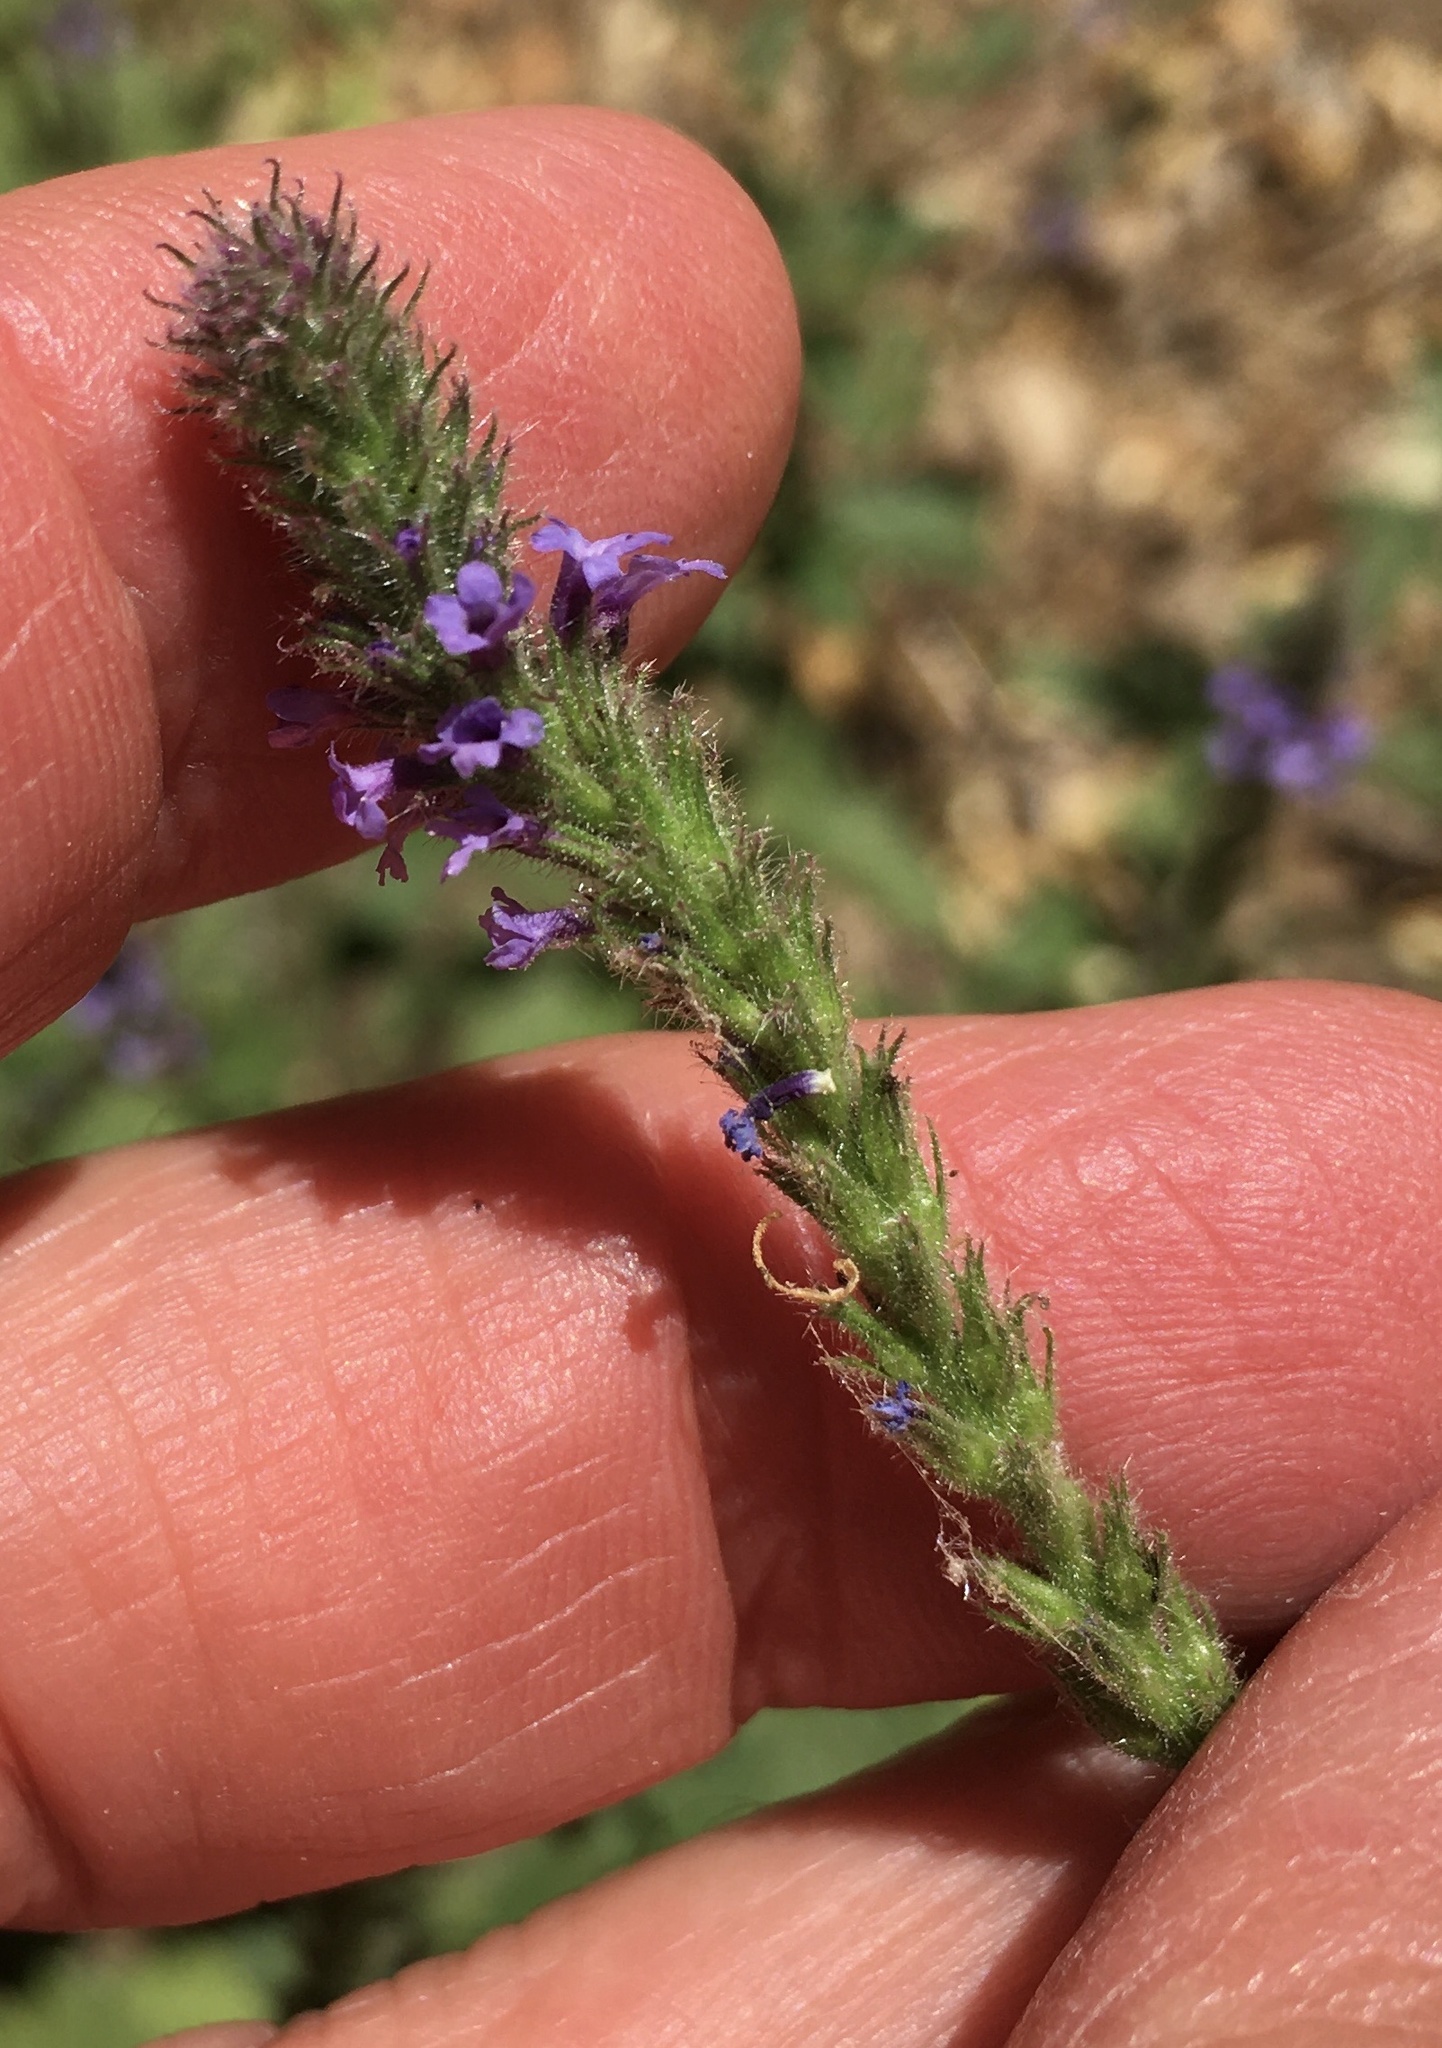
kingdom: Plantae
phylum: Tracheophyta
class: Magnoliopsida
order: Lamiales
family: Verbenaceae
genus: Verbena
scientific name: Verbena lasiostachys
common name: Vervain
